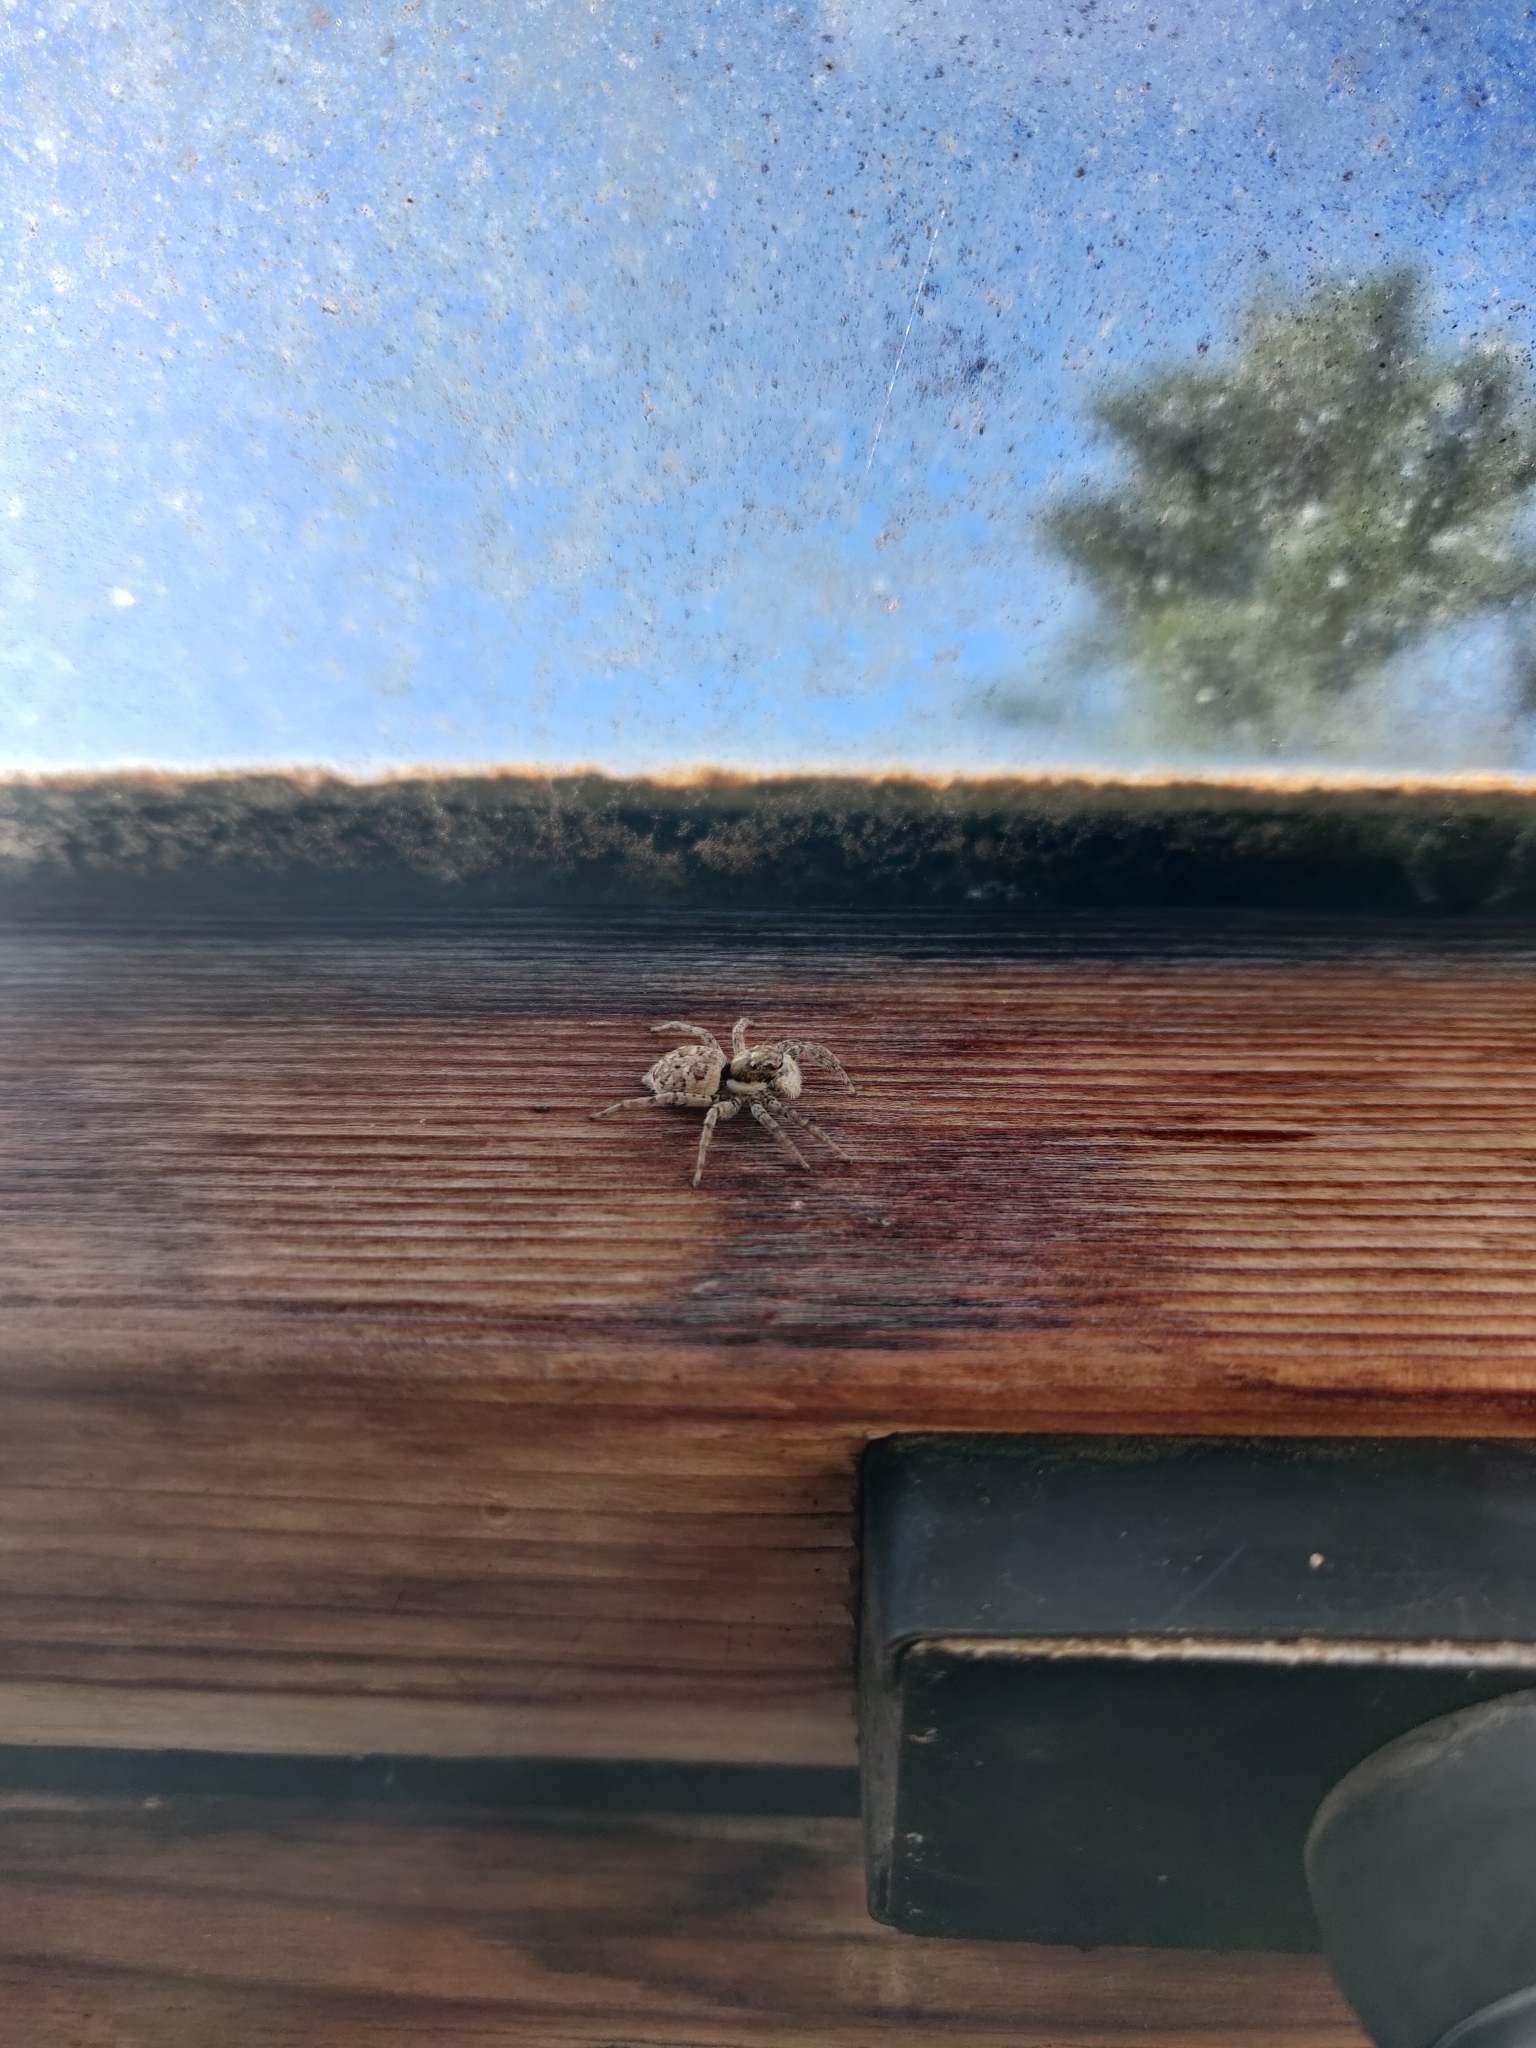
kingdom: Animalia
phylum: Arthropoda
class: Arachnida
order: Araneae
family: Salticidae
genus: Menemerus
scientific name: Menemerus semilimbatus
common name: Jumping spider
